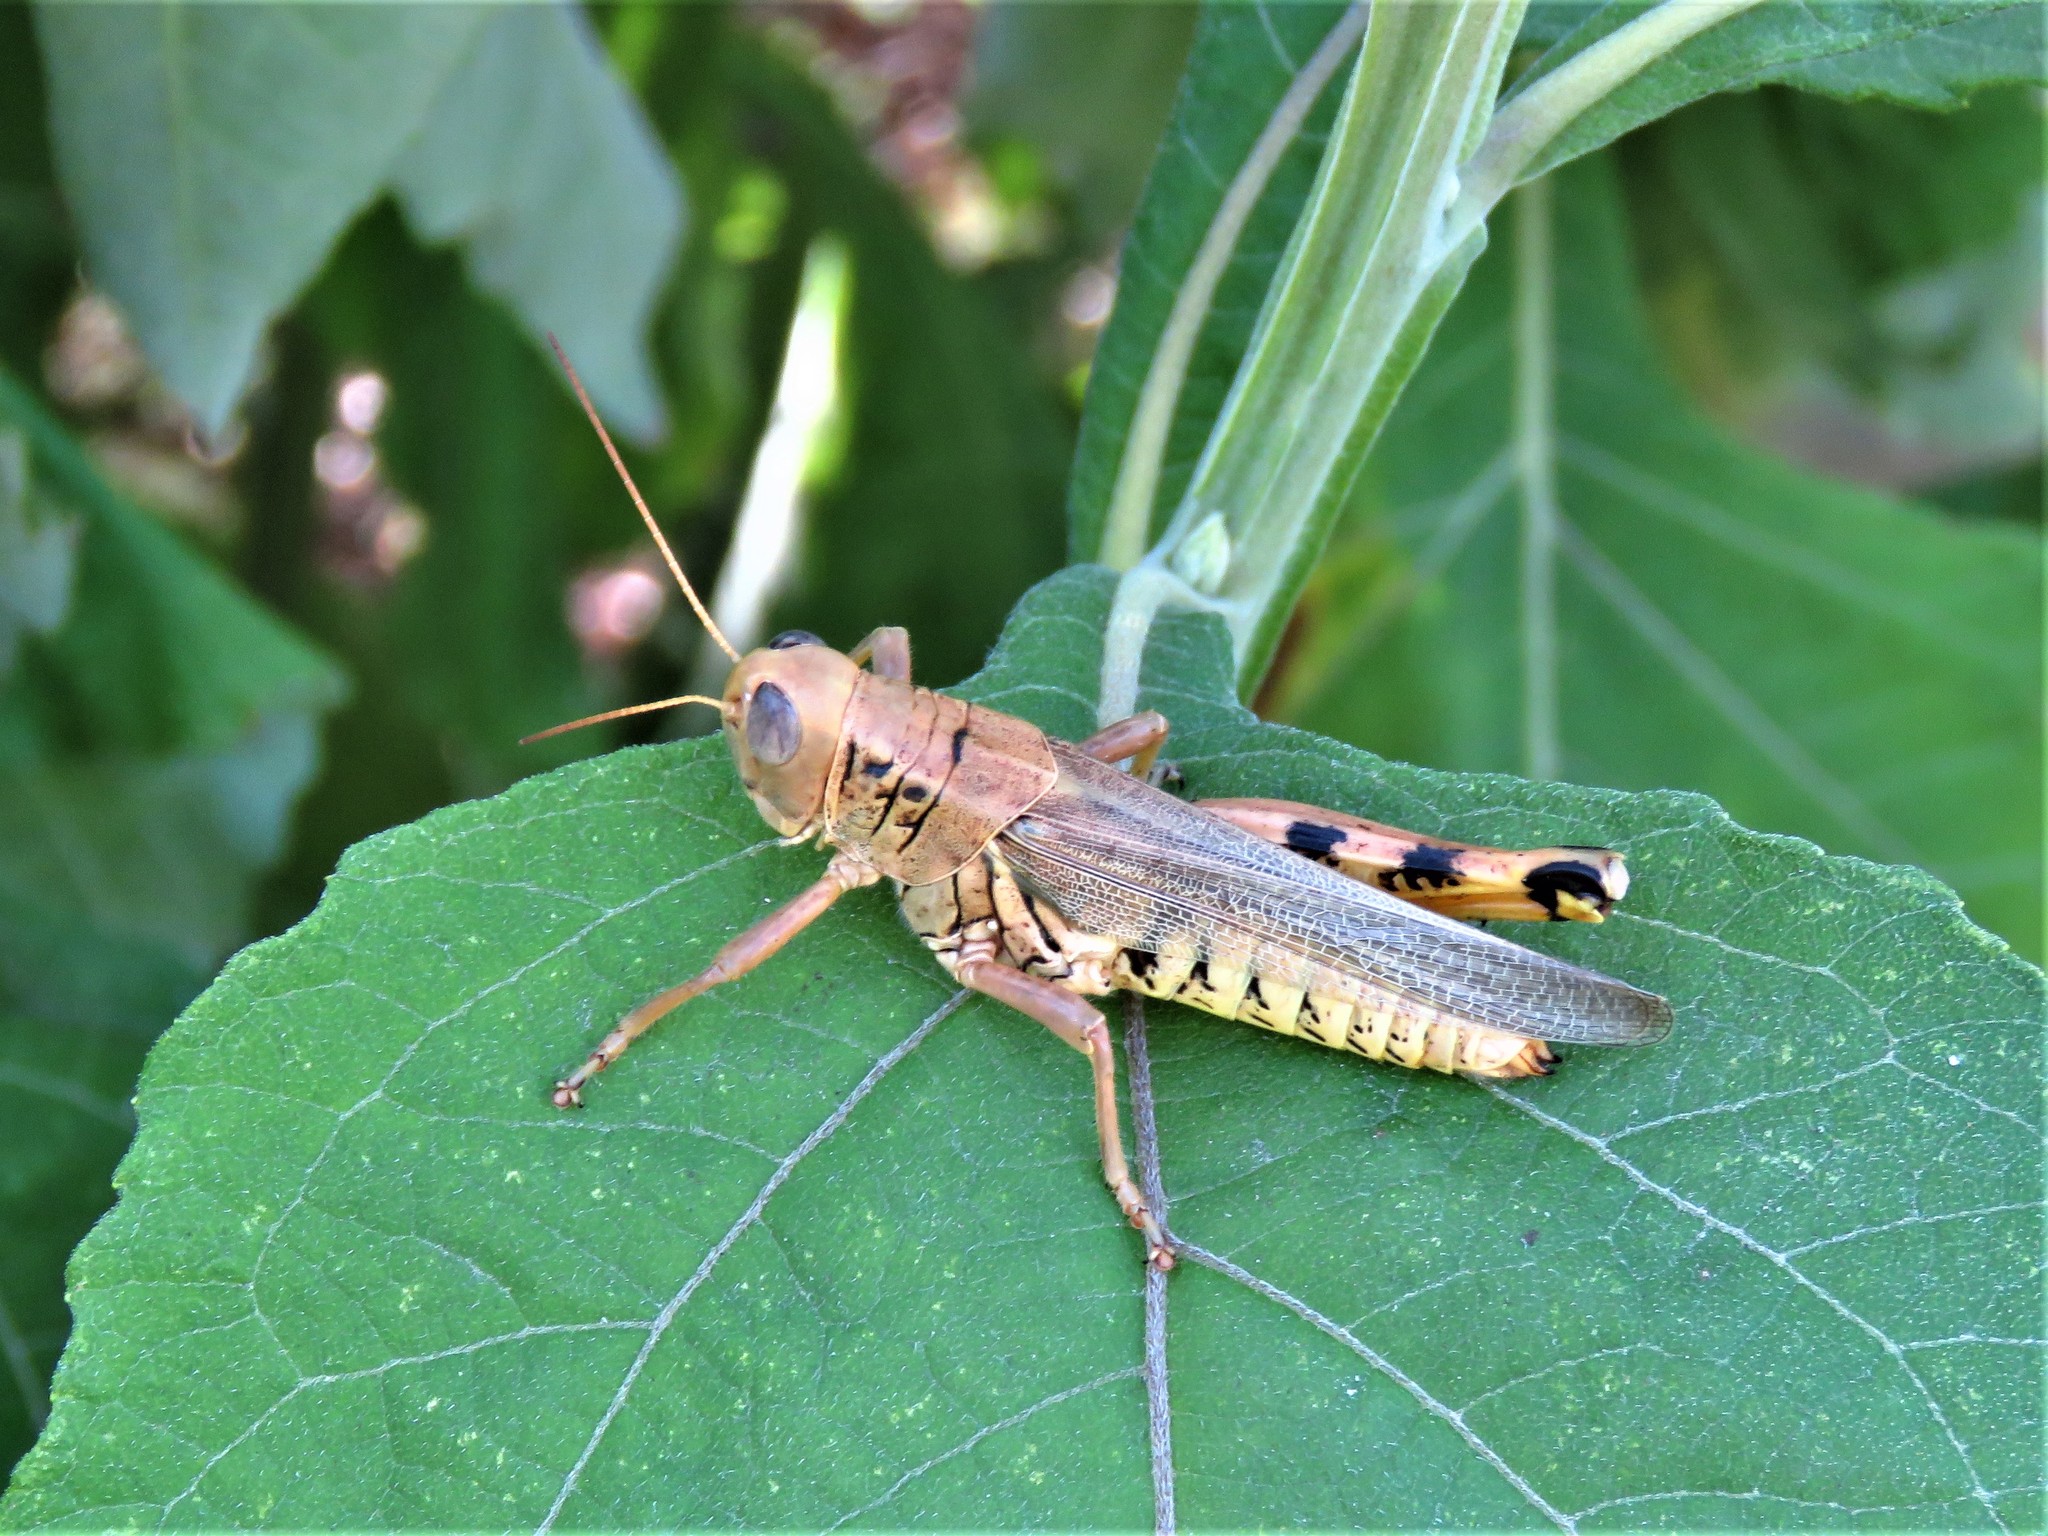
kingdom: Animalia
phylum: Arthropoda
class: Insecta
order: Orthoptera
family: Acrididae
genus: Melanoplus
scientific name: Melanoplus differentialis
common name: Differential grasshopper
